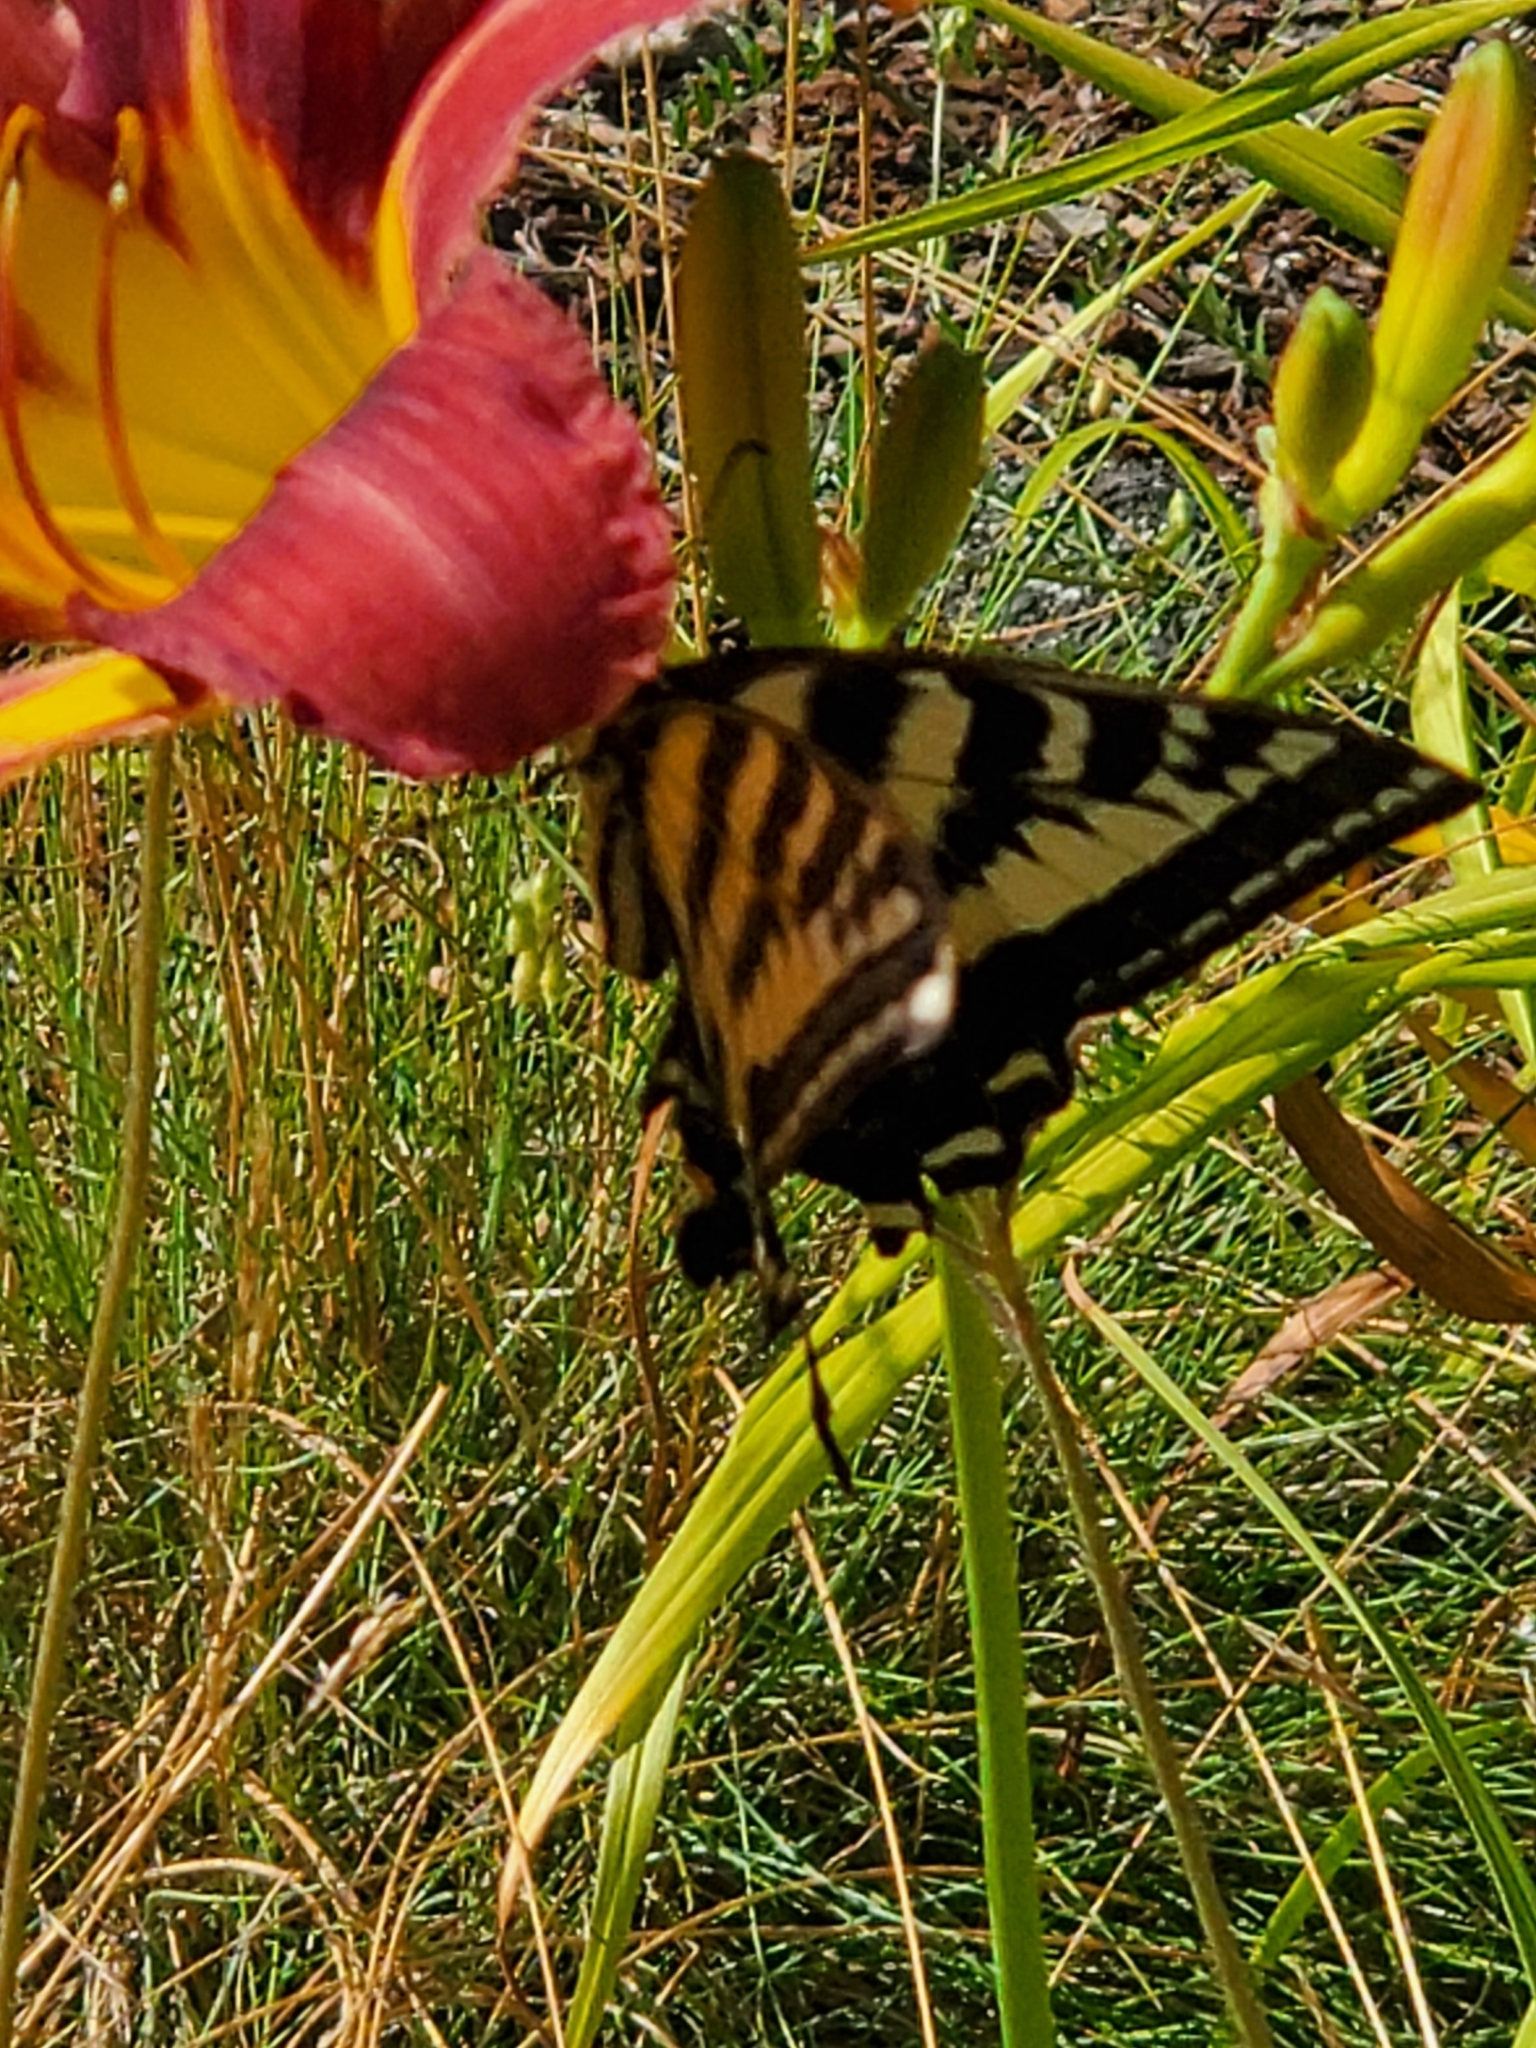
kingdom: Animalia
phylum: Arthropoda
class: Insecta
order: Lepidoptera
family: Papilionidae
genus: Papilio
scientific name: Papilio rutulus
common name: Western tiger swallowtail
